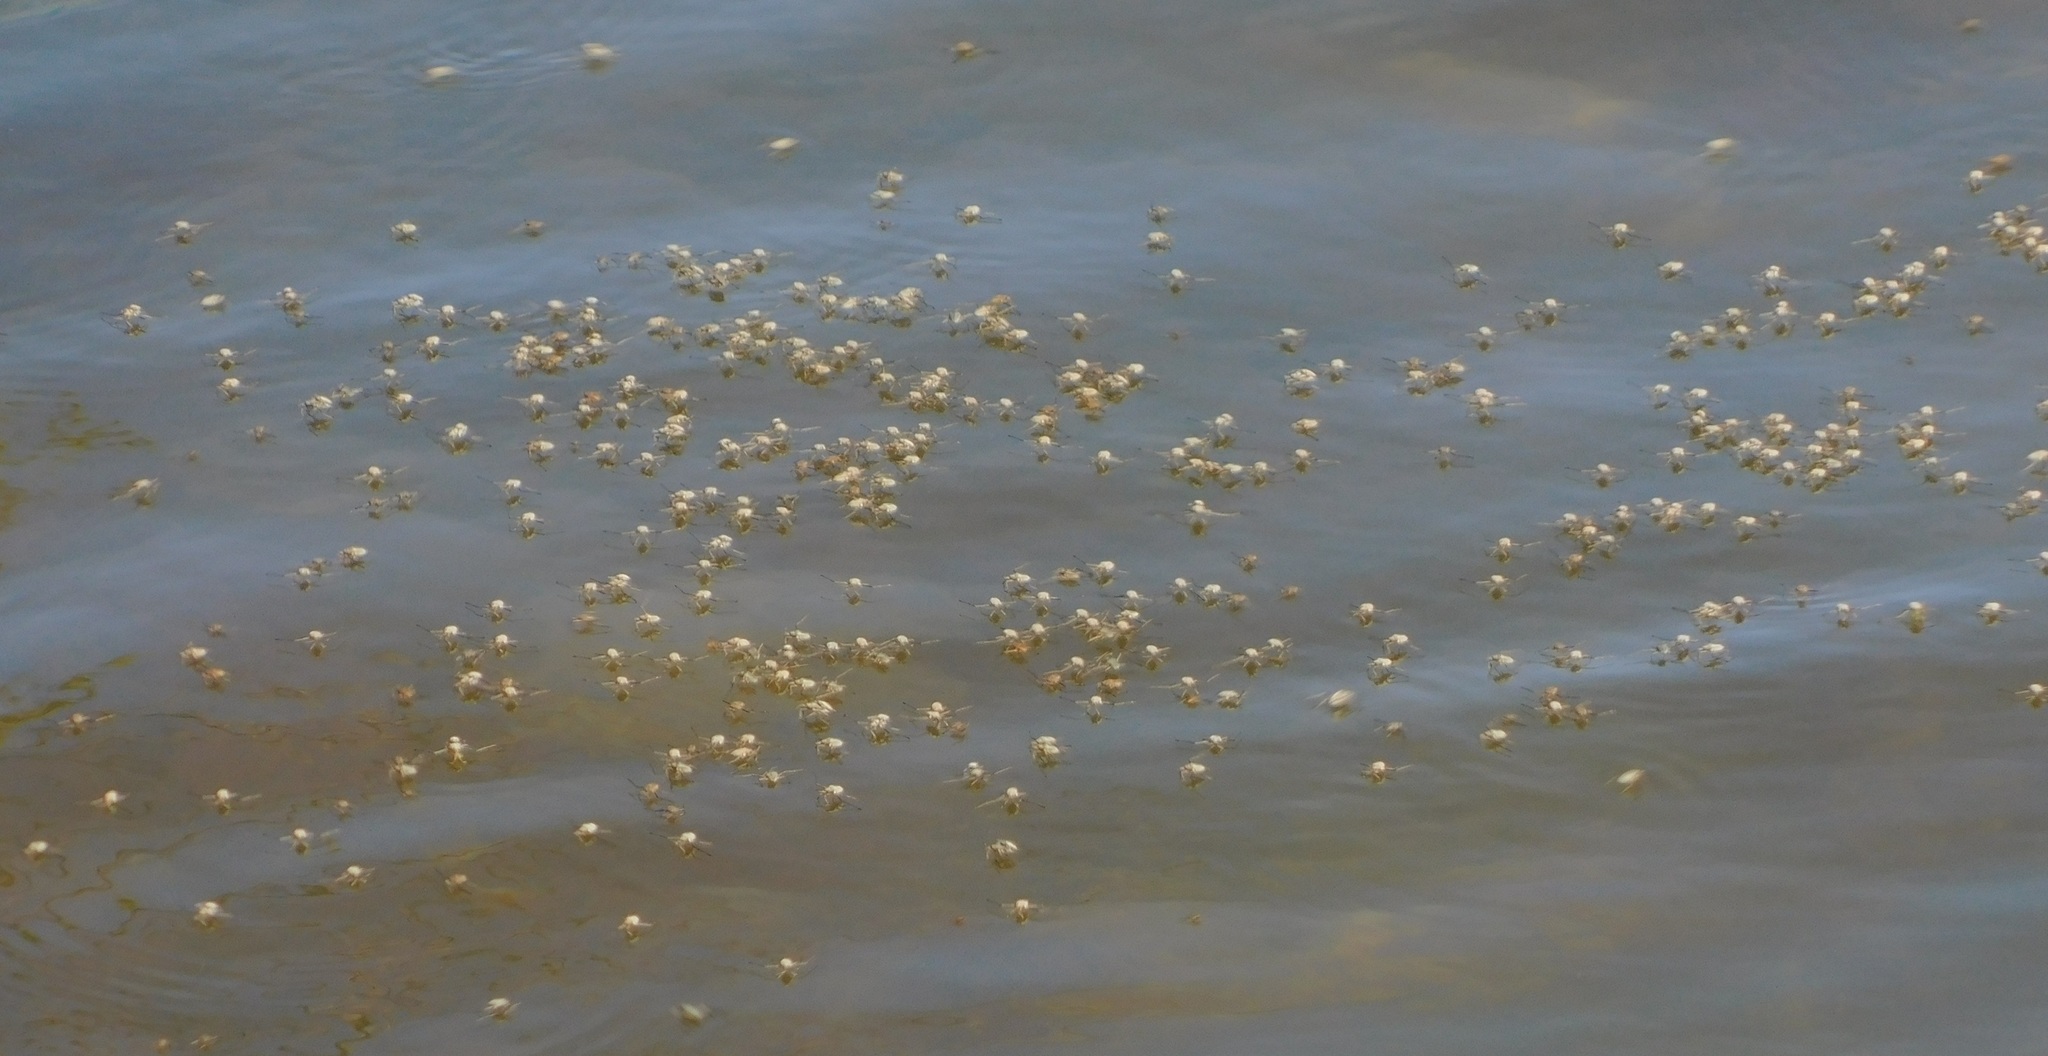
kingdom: Animalia
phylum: Arthropoda
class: Insecta
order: Hemiptera
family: Veliidae
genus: Rhagovelia
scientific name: Rhagovelia plumbea
